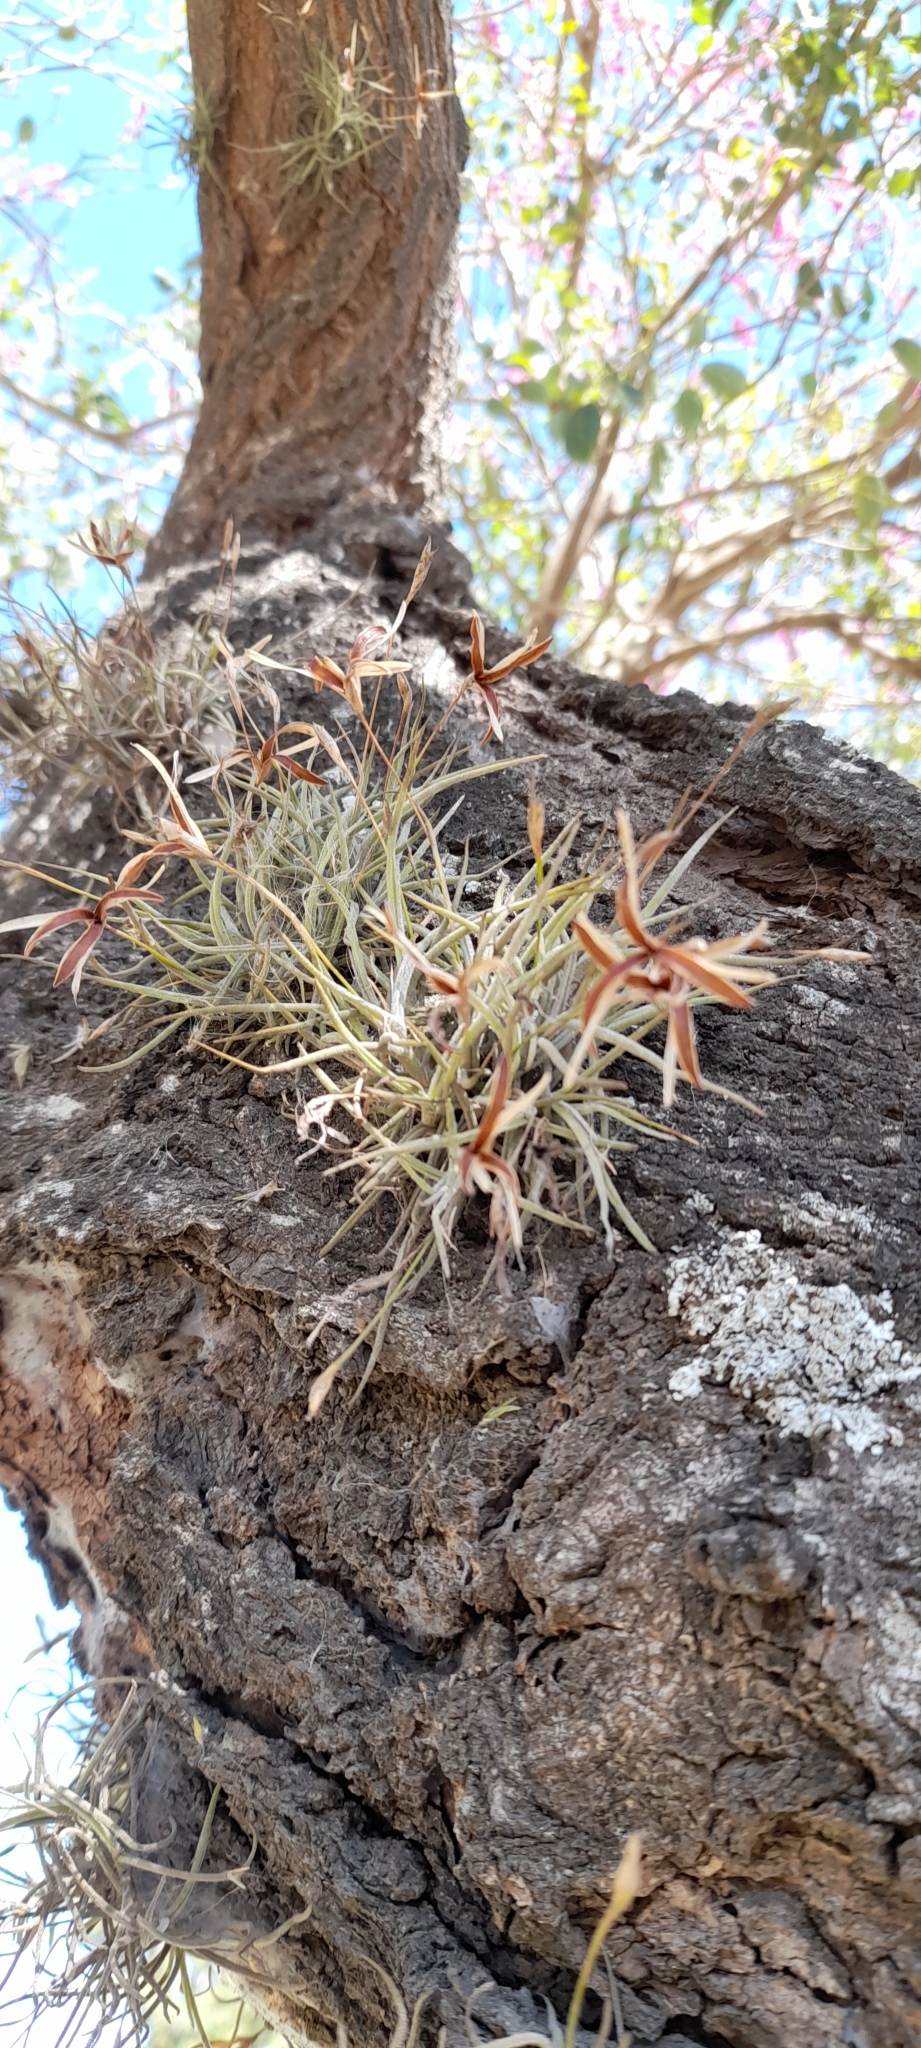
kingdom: Plantae
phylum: Tracheophyta
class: Liliopsida
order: Poales
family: Bromeliaceae
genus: Tillandsia
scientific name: Tillandsia recurvata
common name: Small ballmoss
